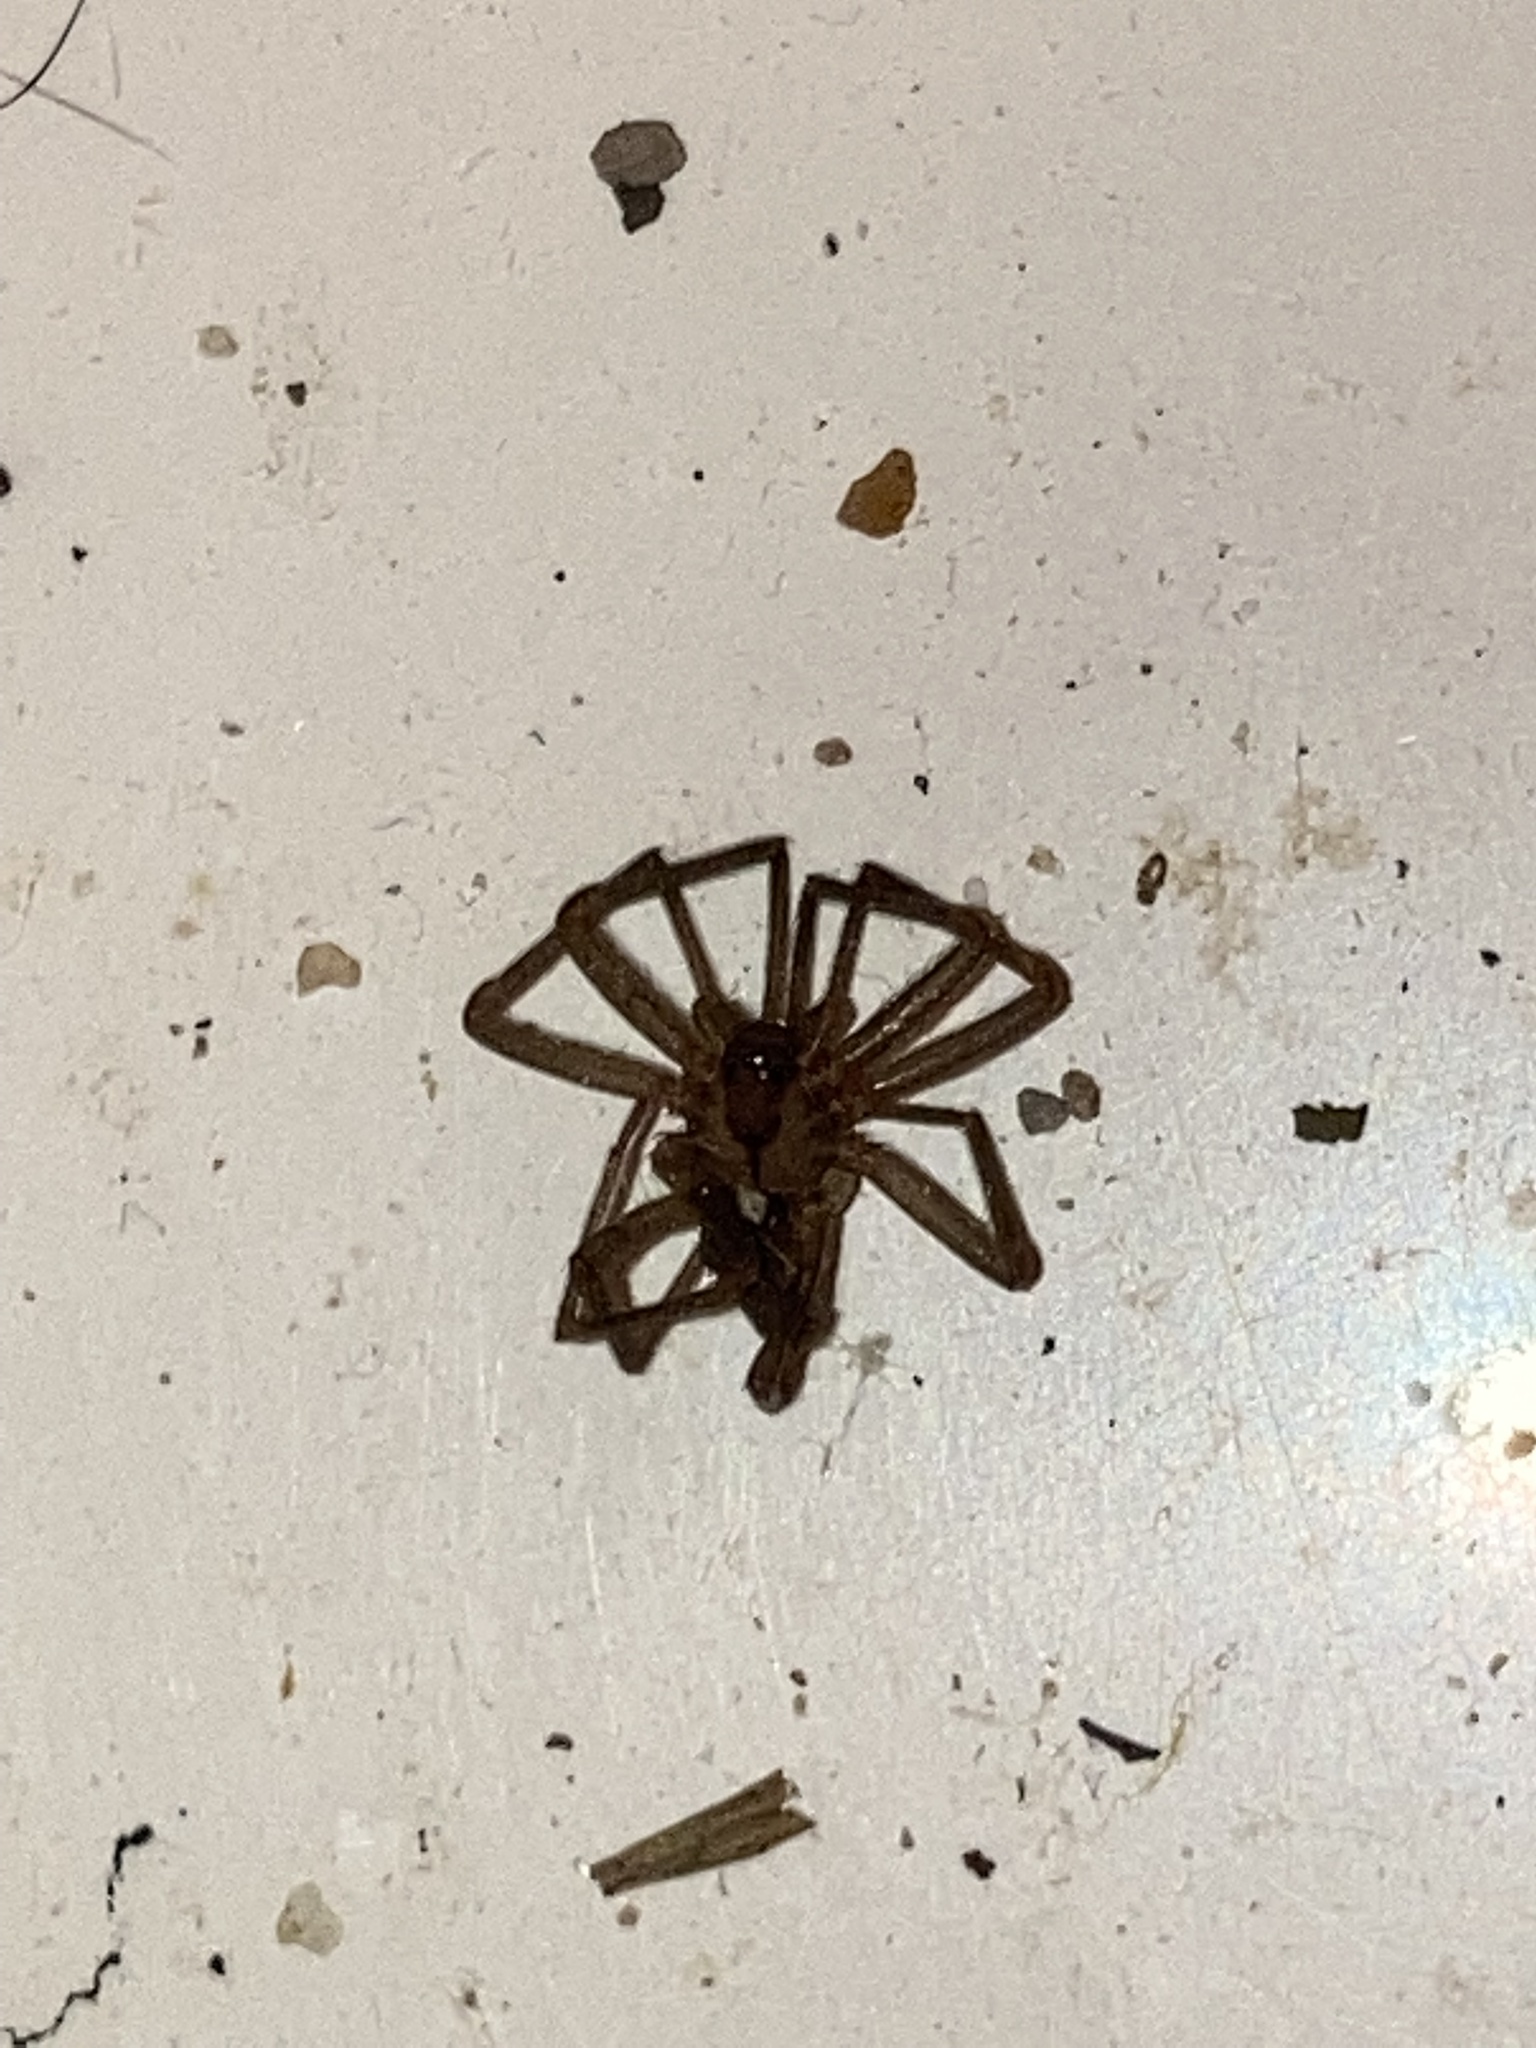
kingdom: Animalia
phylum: Arthropoda
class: Arachnida
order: Araneae
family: Sicariidae
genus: Loxosceles
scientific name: Loxosceles reclusa
